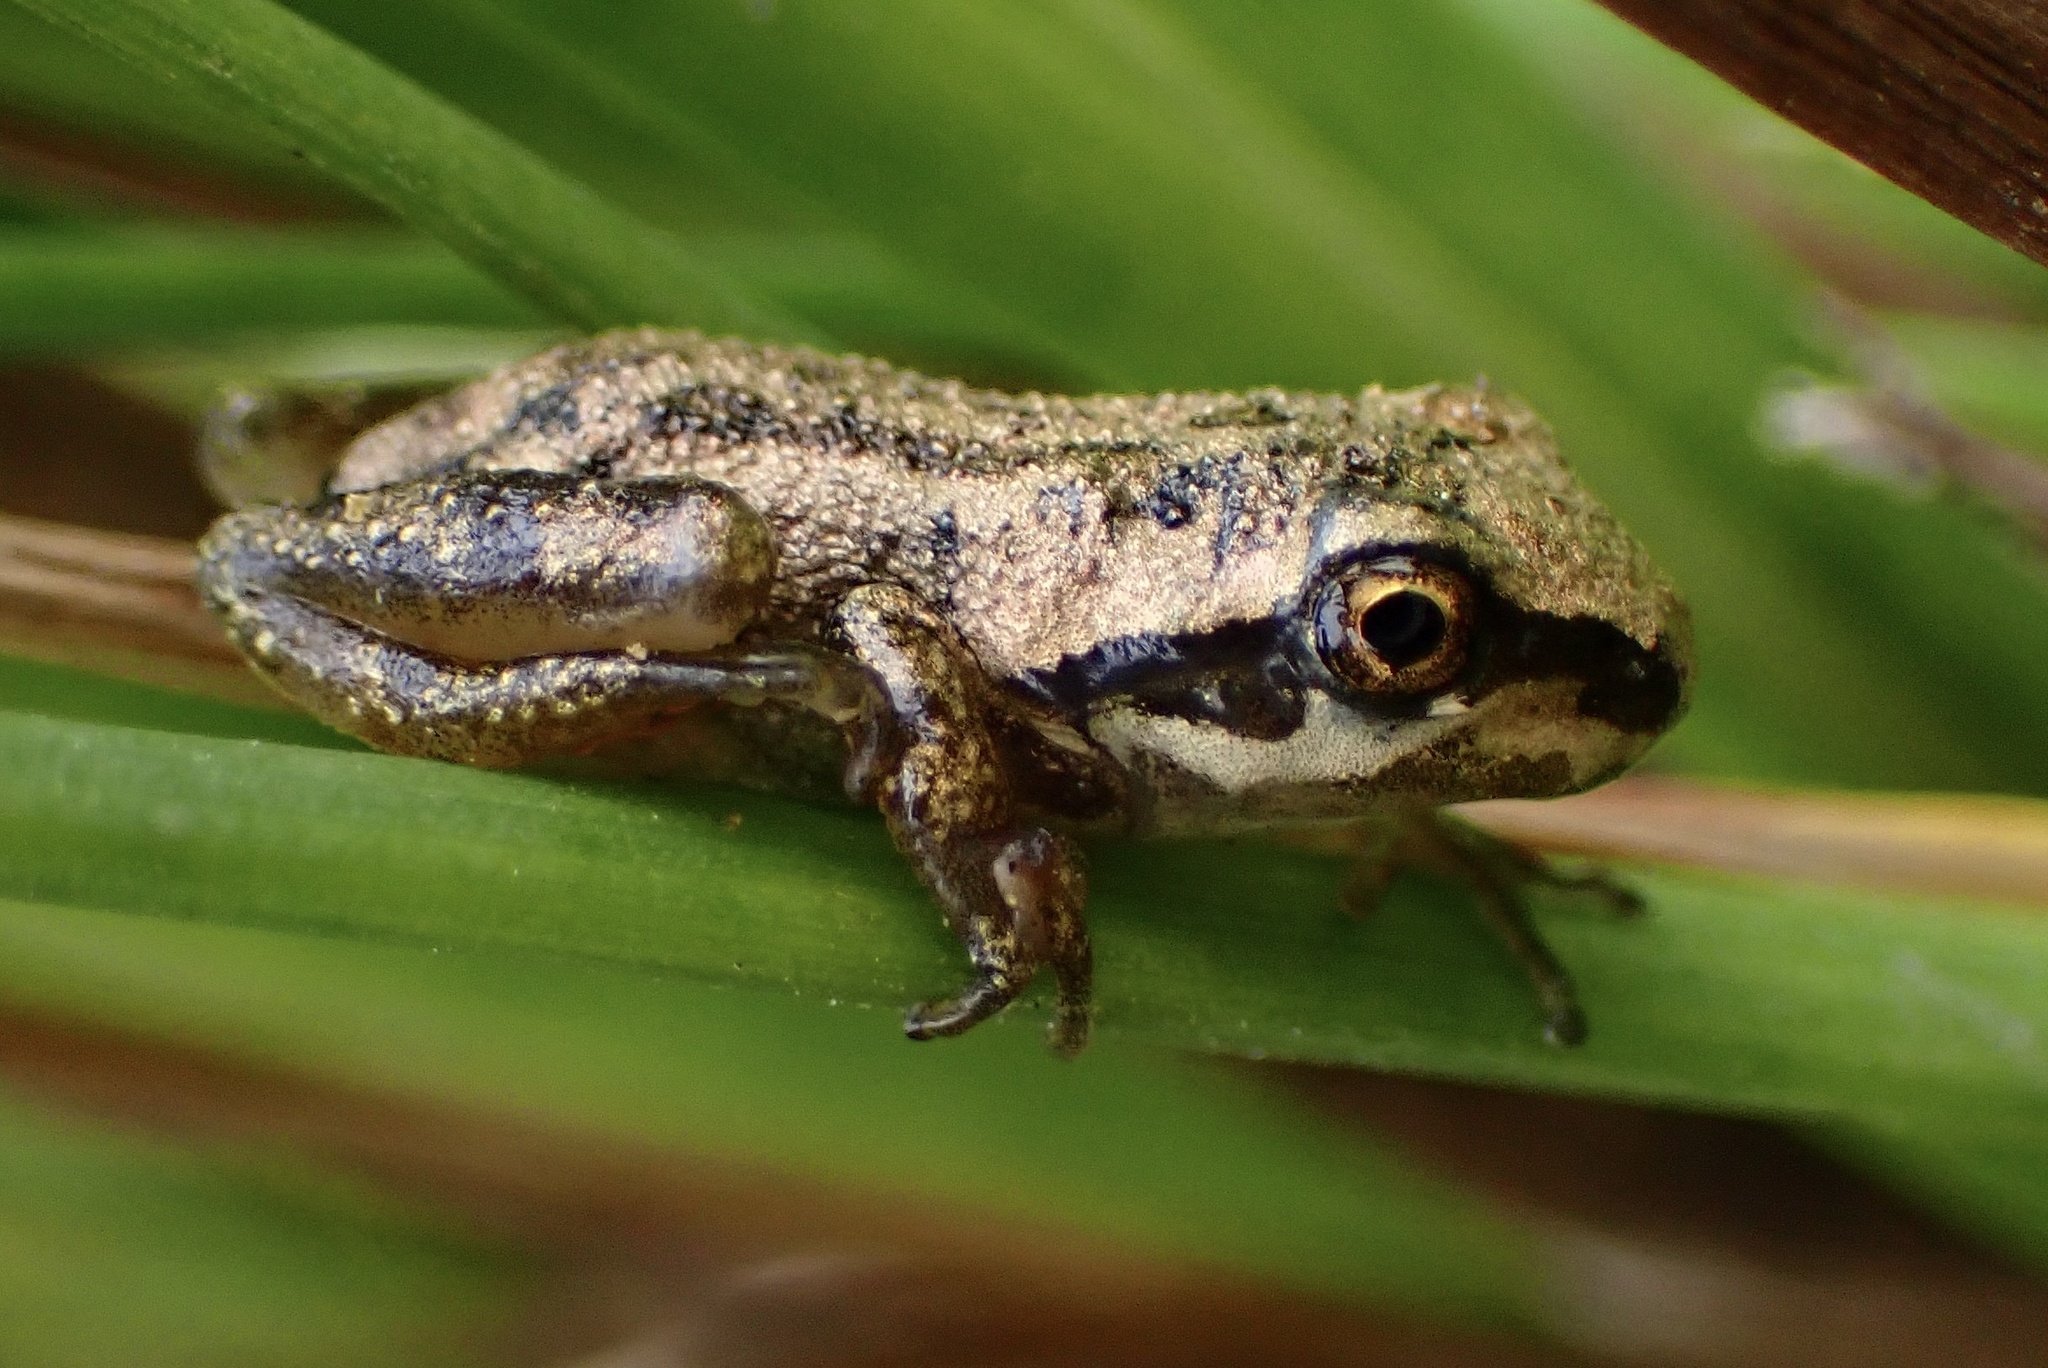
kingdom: Animalia
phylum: Chordata
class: Amphibia
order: Anura
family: Hylidae
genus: Pseudacris
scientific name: Pseudacris regilla
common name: Pacific chorus frog
